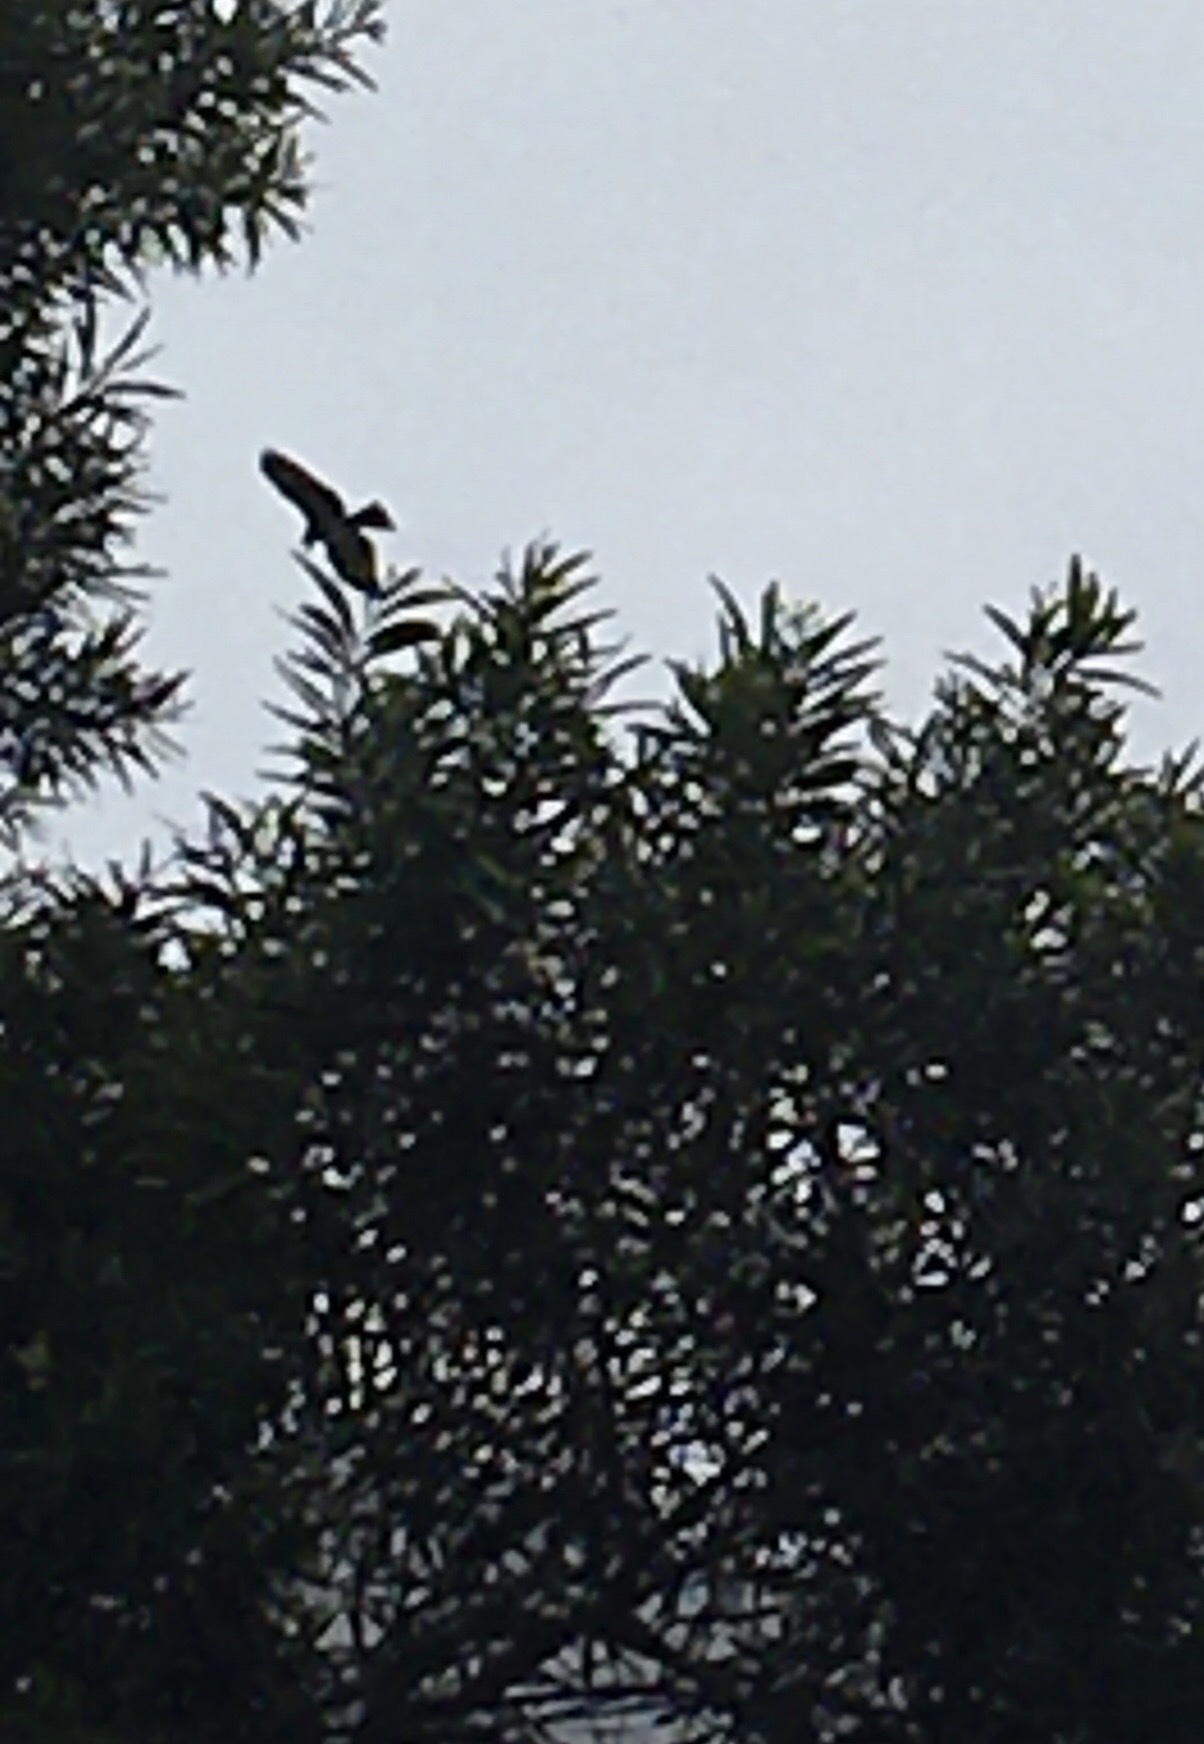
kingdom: Animalia
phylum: Chordata
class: Aves
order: Accipitriformes
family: Accipitridae
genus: Milvus
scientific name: Milvus migrans
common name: Black kite
